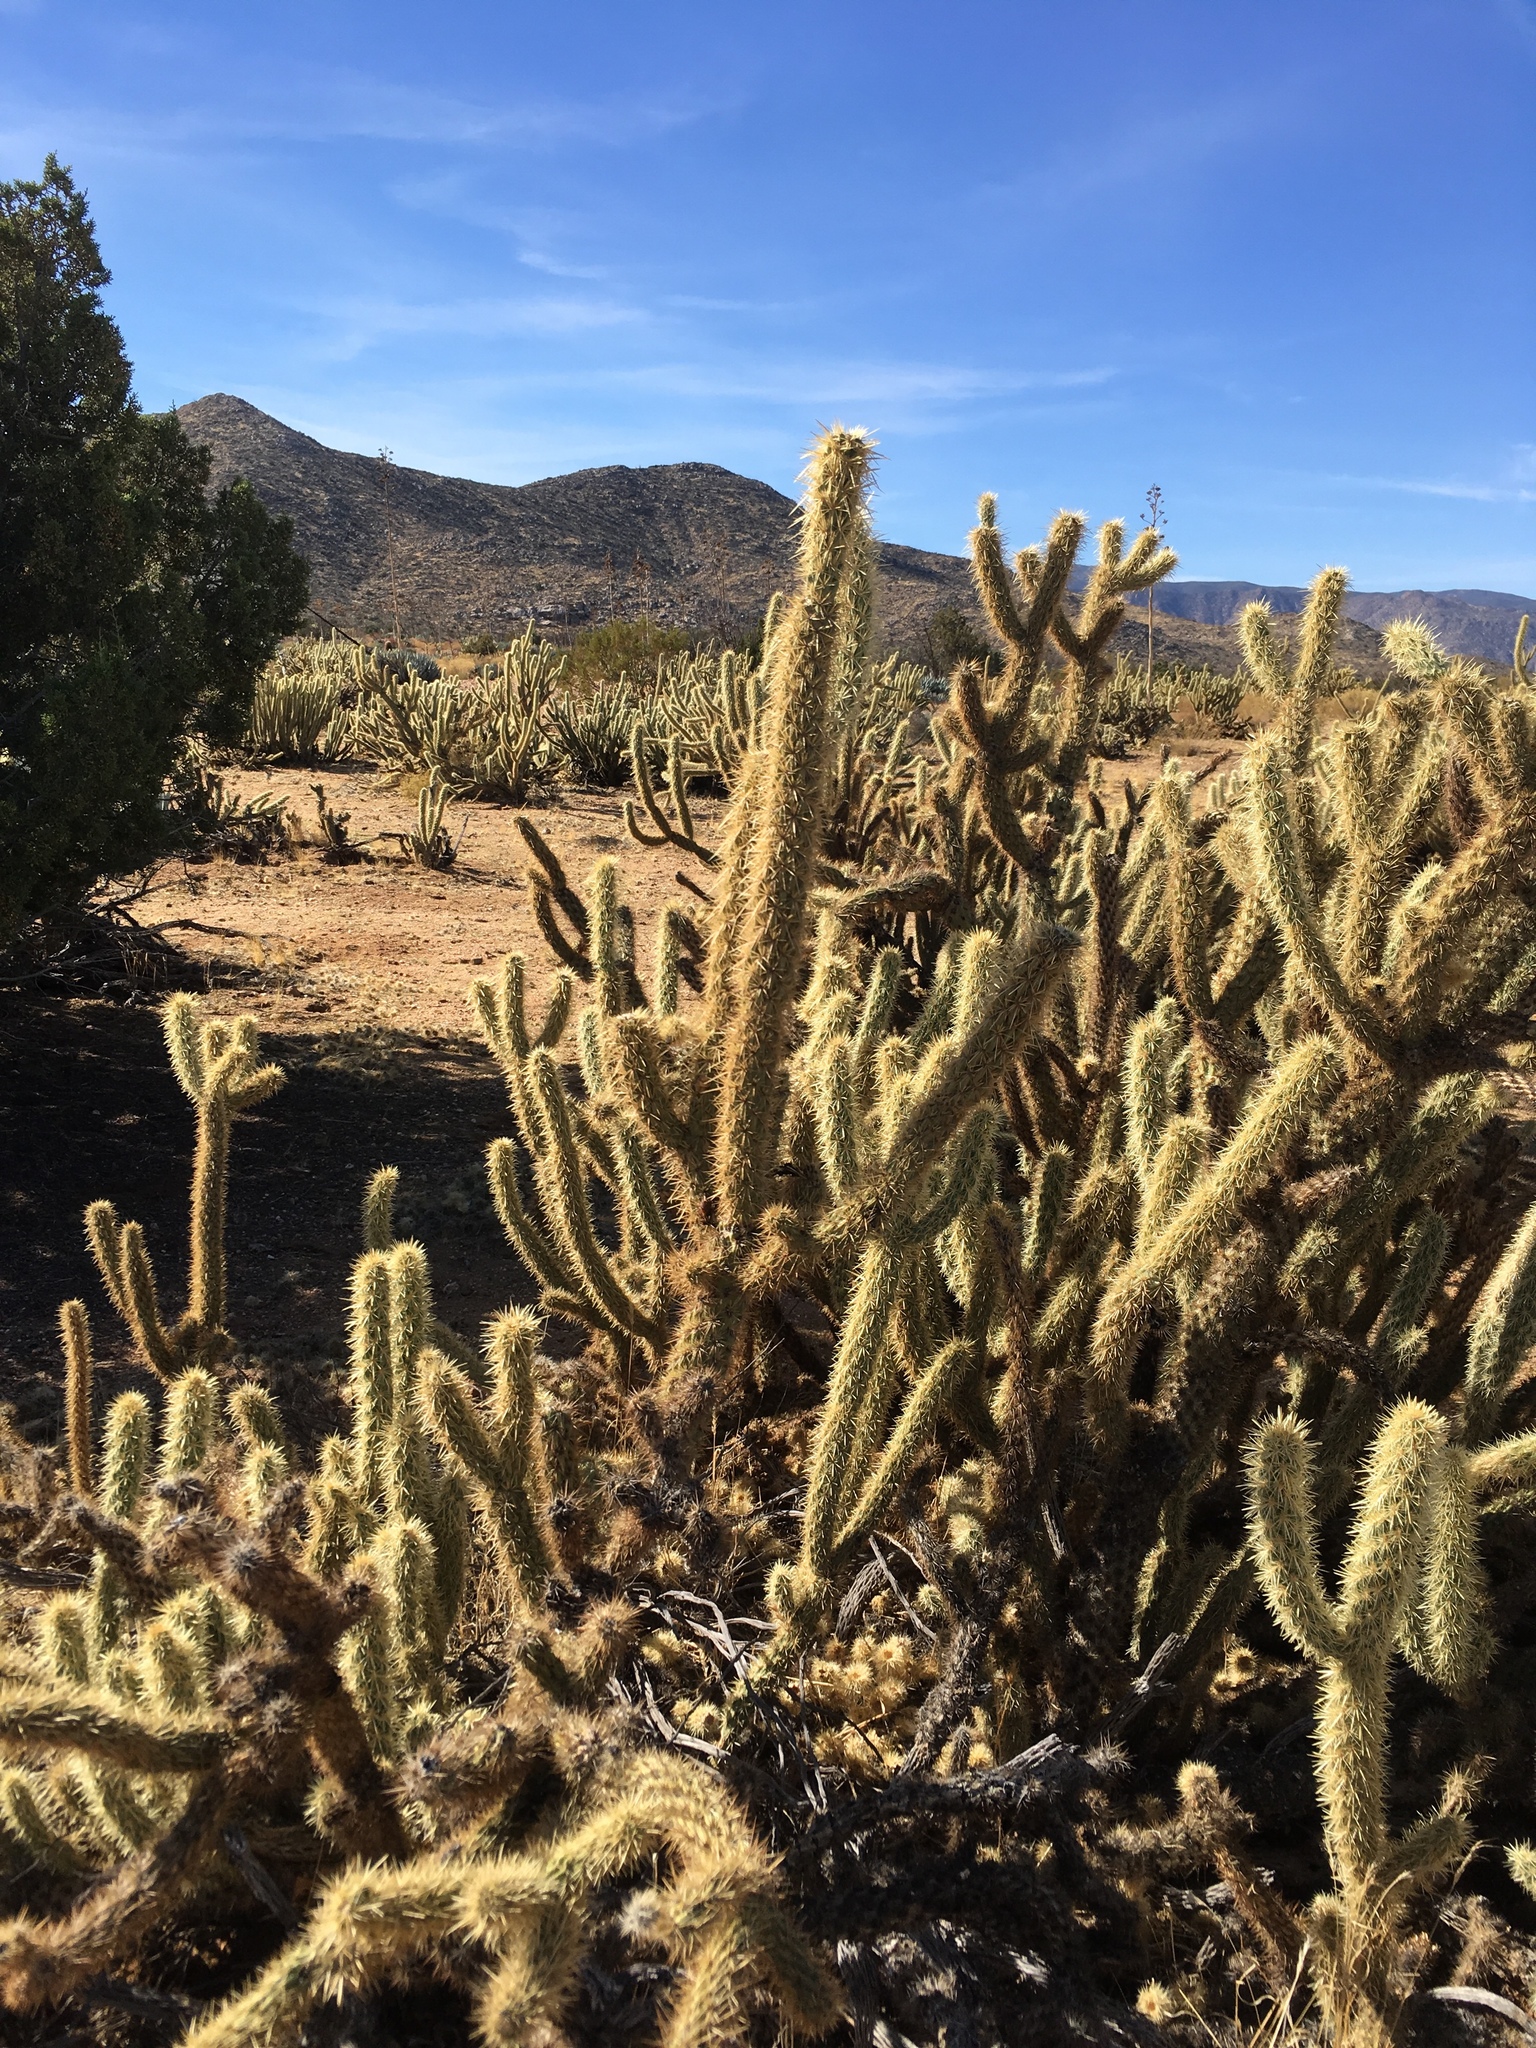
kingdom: Plantae
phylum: Tracheophyta
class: Magnoliopsida
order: Caryophyllales
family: Cactaceae
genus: Cylindropuntia
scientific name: Cylindropuntia ganderi
